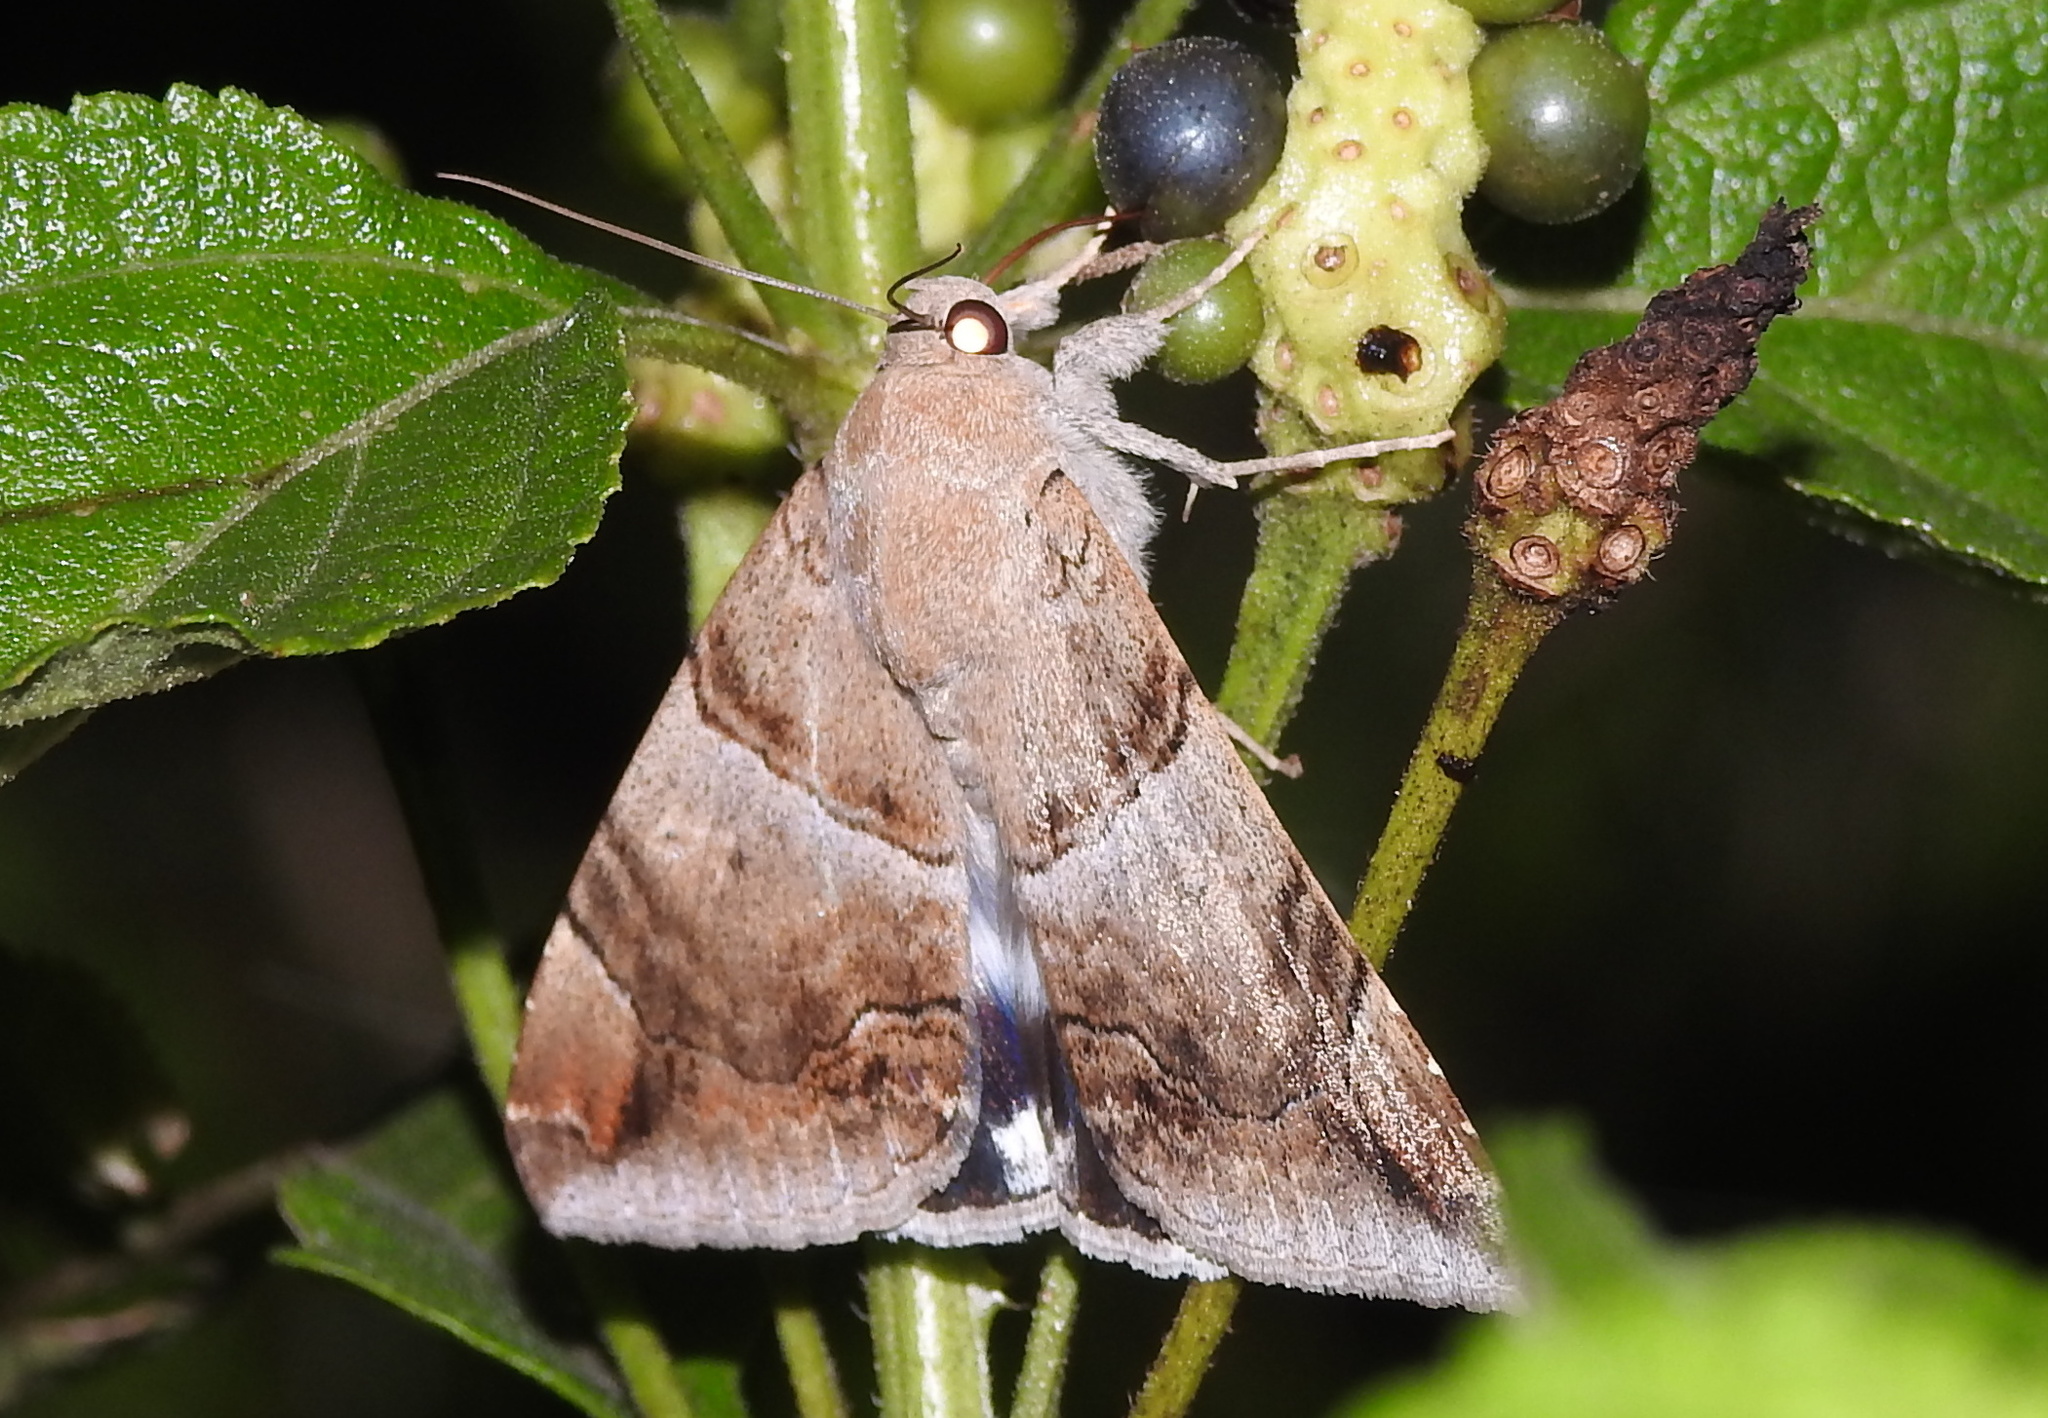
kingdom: Animalia
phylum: Arthropoda
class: Insecta
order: Lepidoptera
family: Erebidae
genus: Achaea
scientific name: Achaea janata
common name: Croton caterpillar
